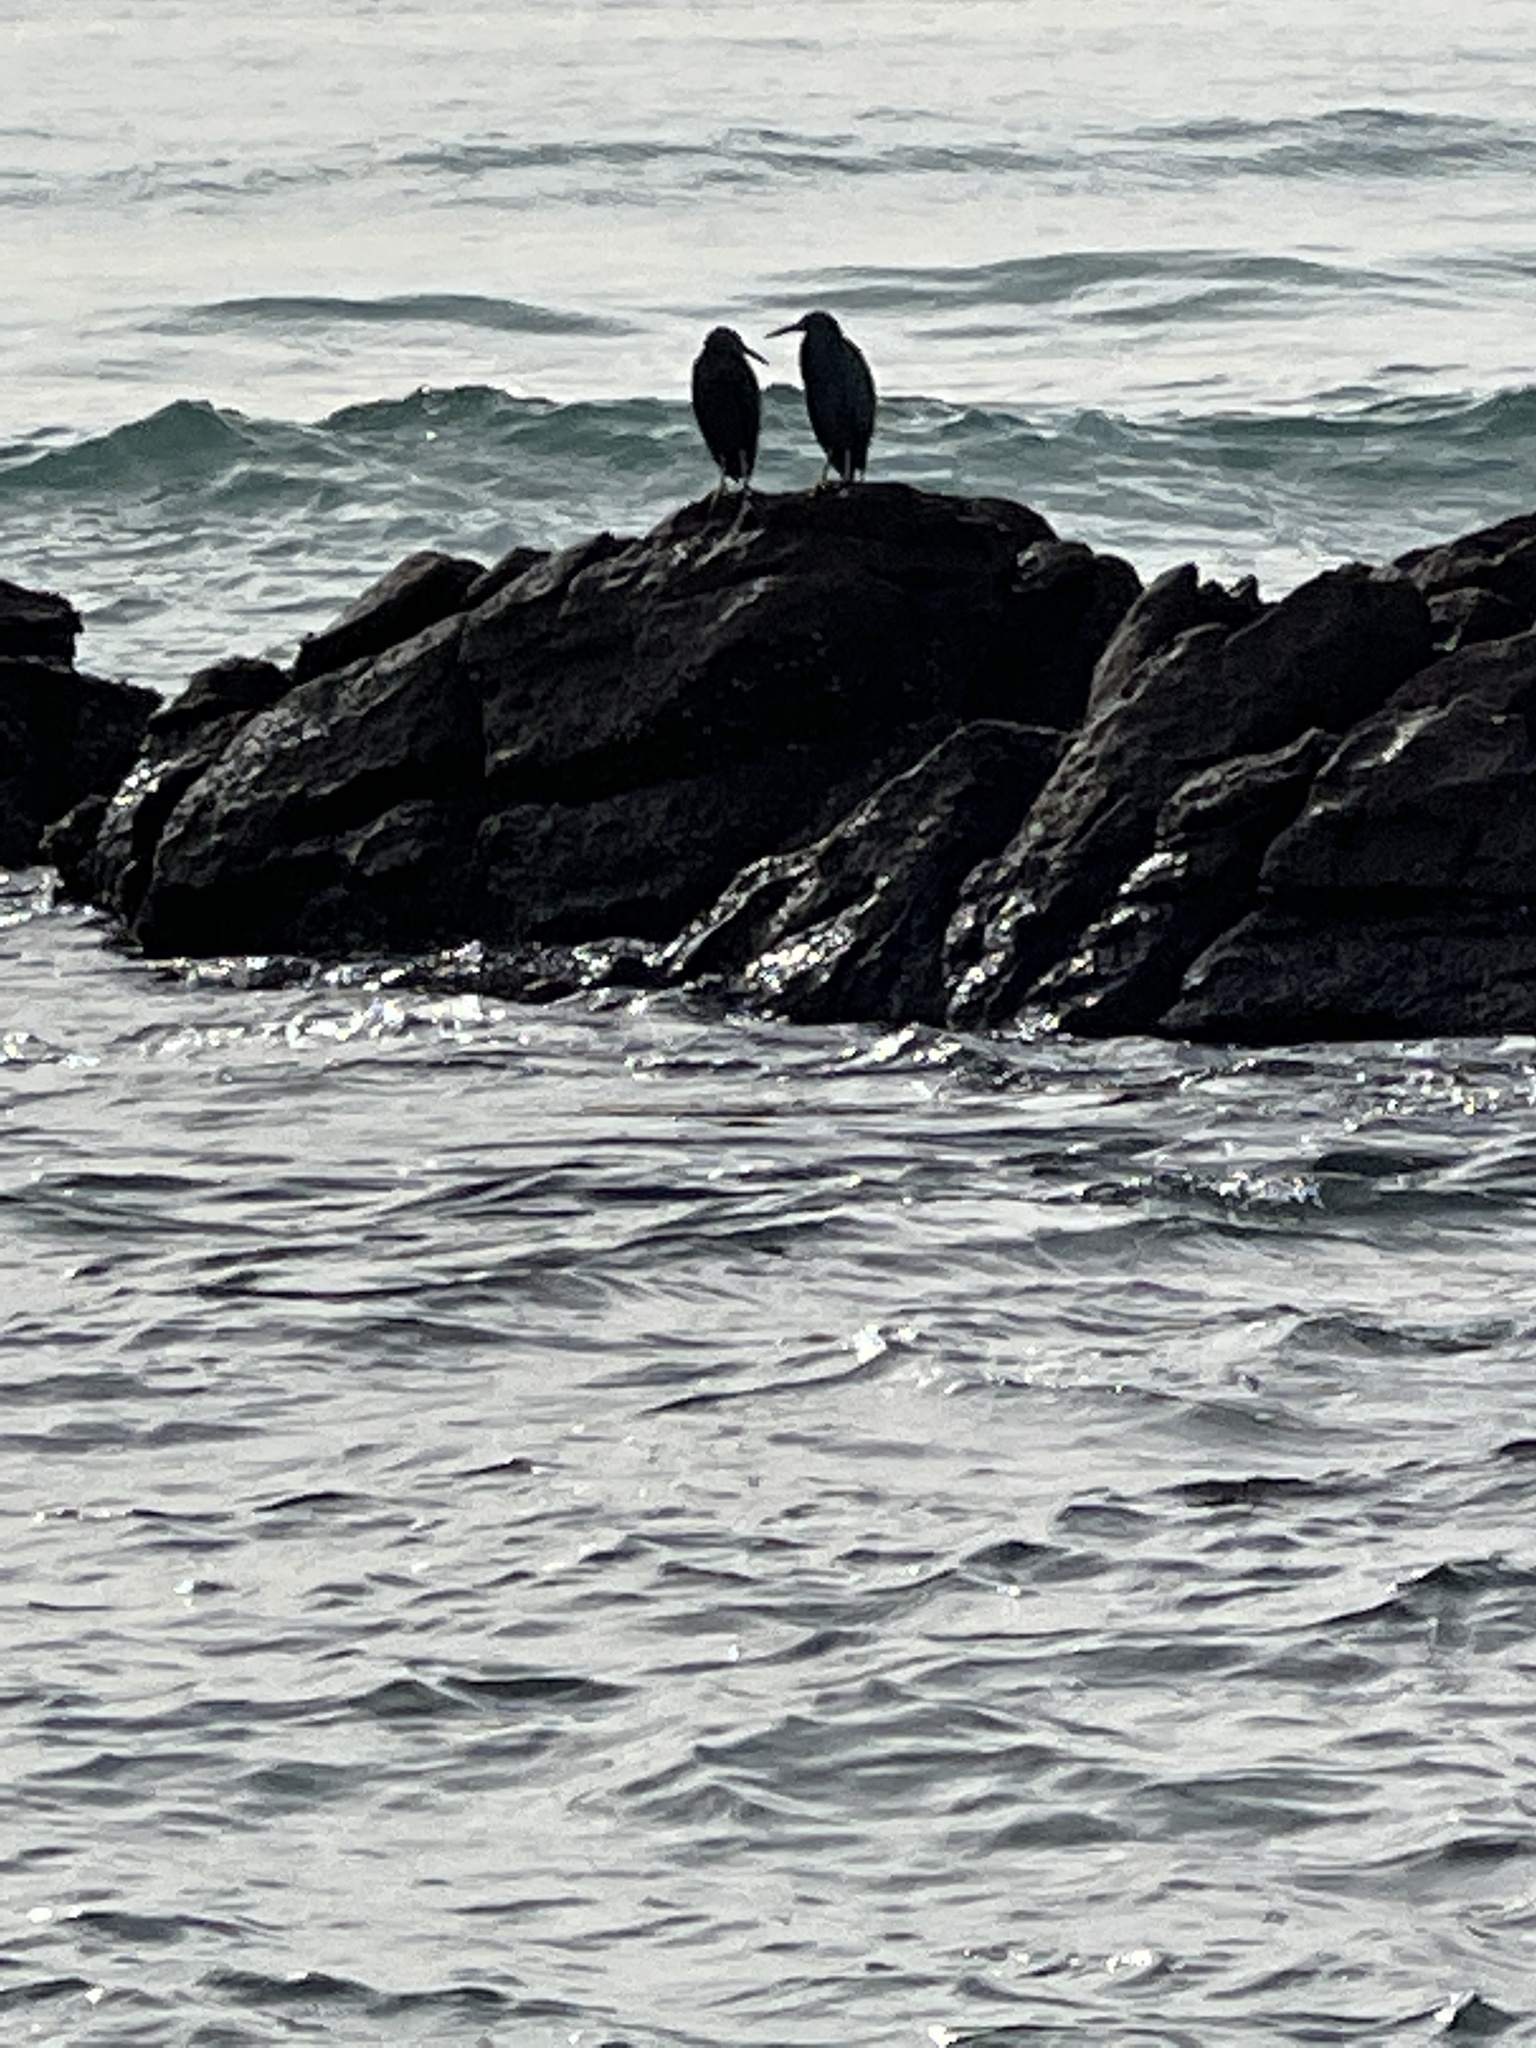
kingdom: Animalia
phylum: Chordata
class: Aves
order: Pelecaniformes
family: Ardeidae
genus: Egretta
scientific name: Egretta sacra
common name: Pacific reef heron
